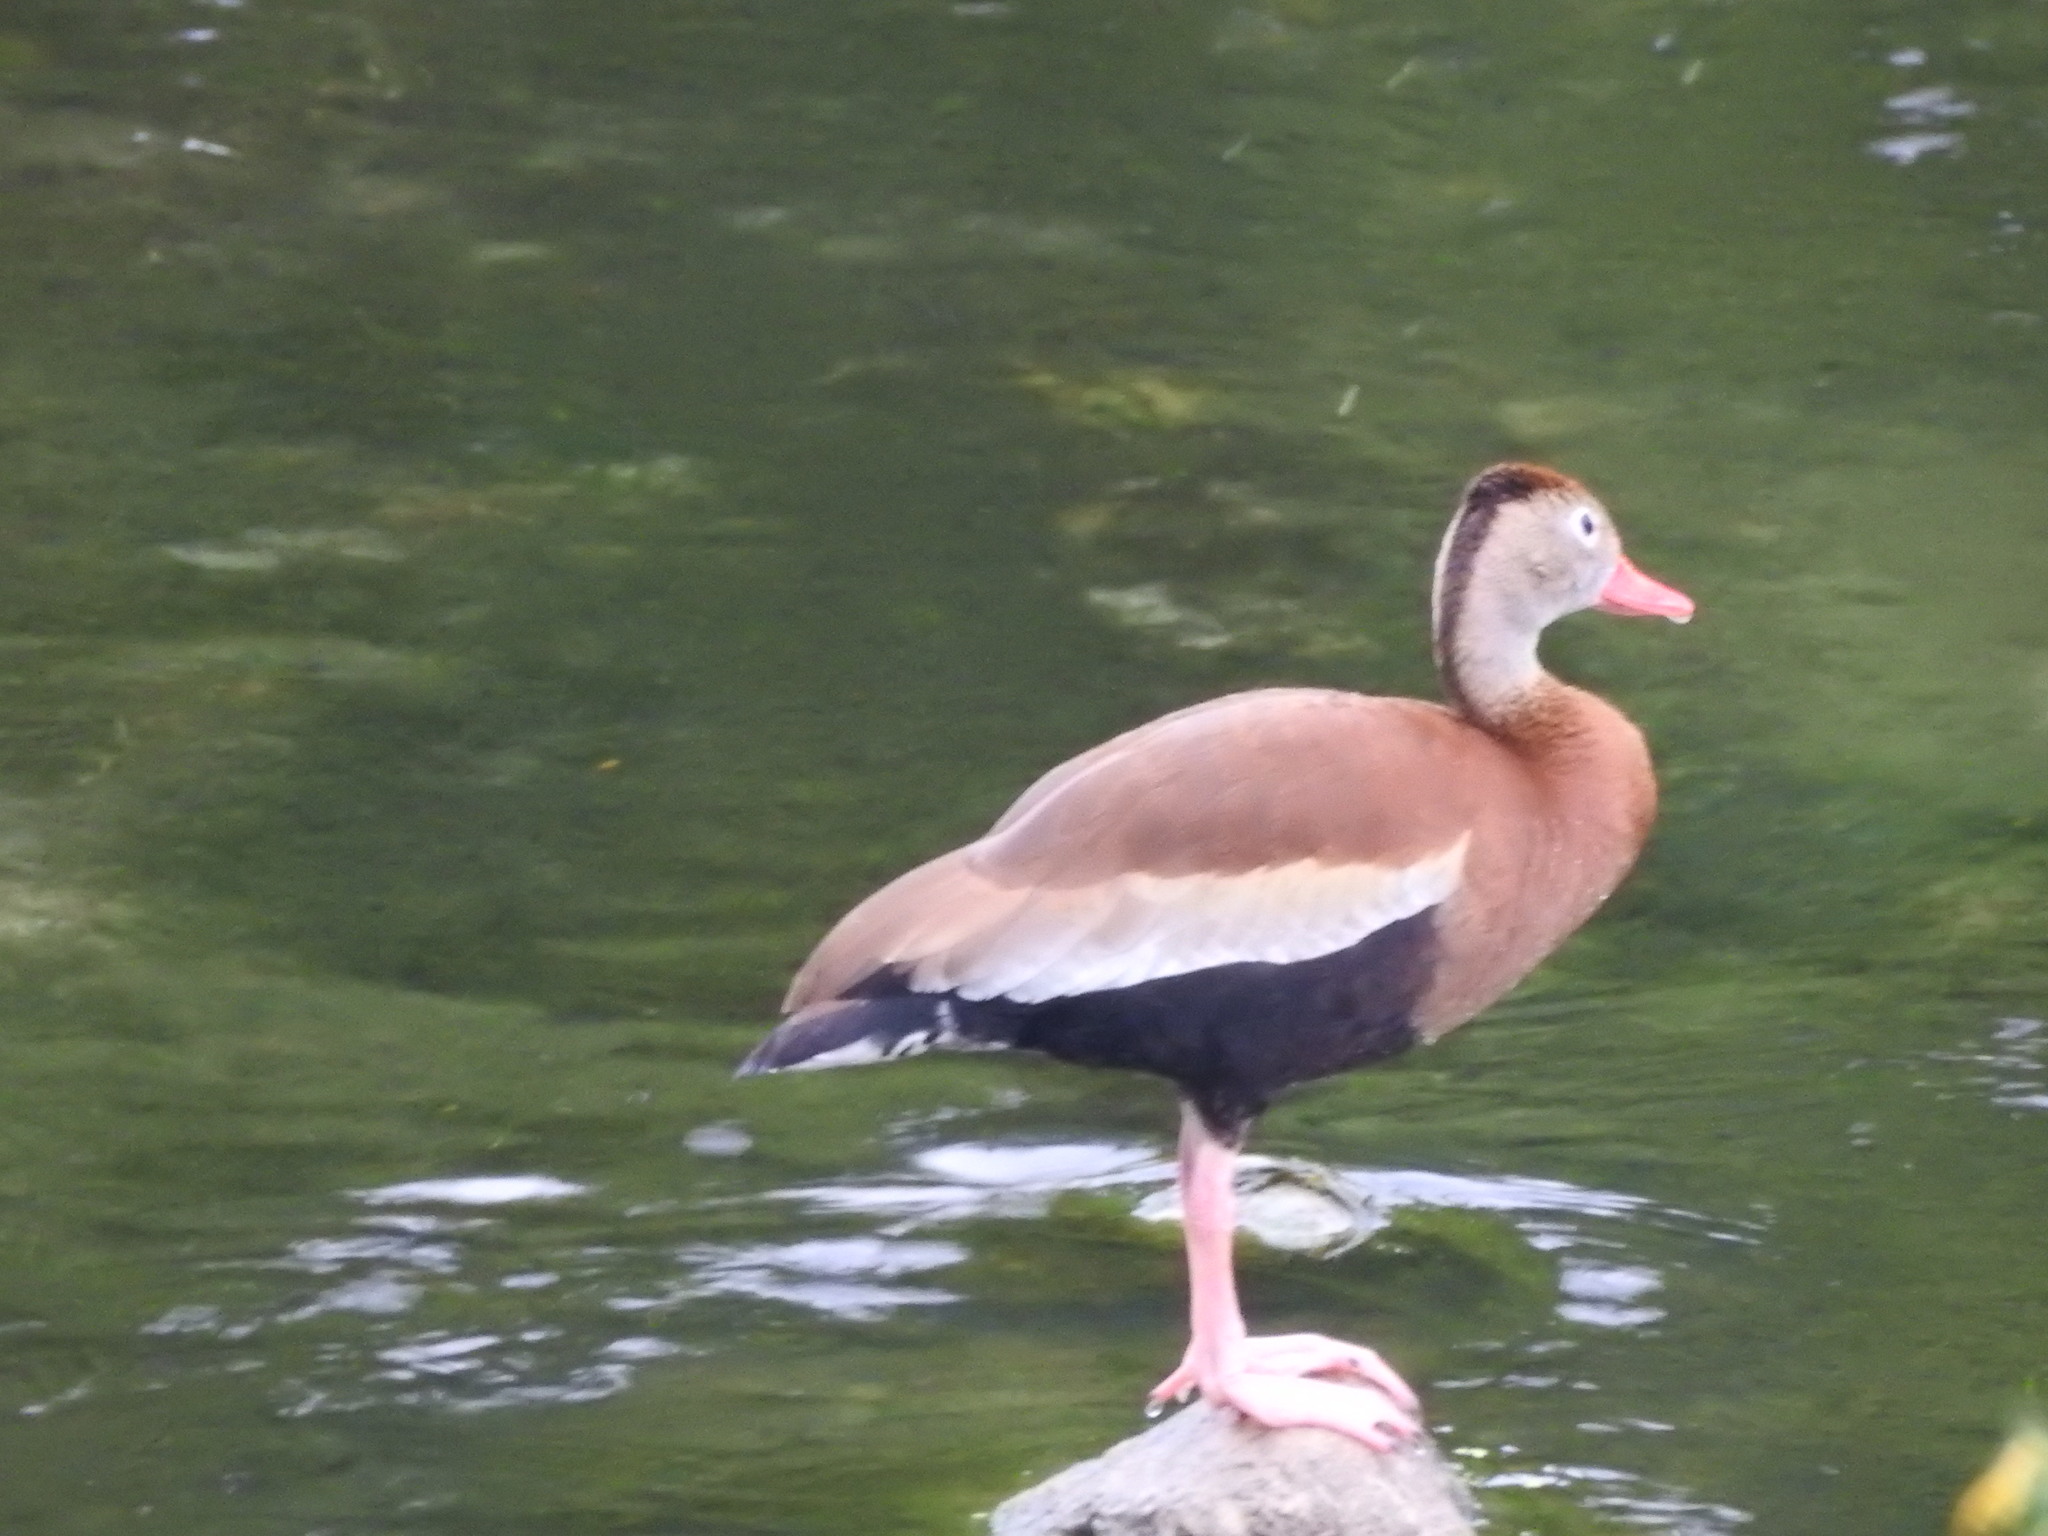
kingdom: Animalia
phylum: Chordata
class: Aves
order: Anseriformes
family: Anatidae
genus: Dendrocygna
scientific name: Dendrocygna autumnalis
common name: Black-bellied whistling duck
